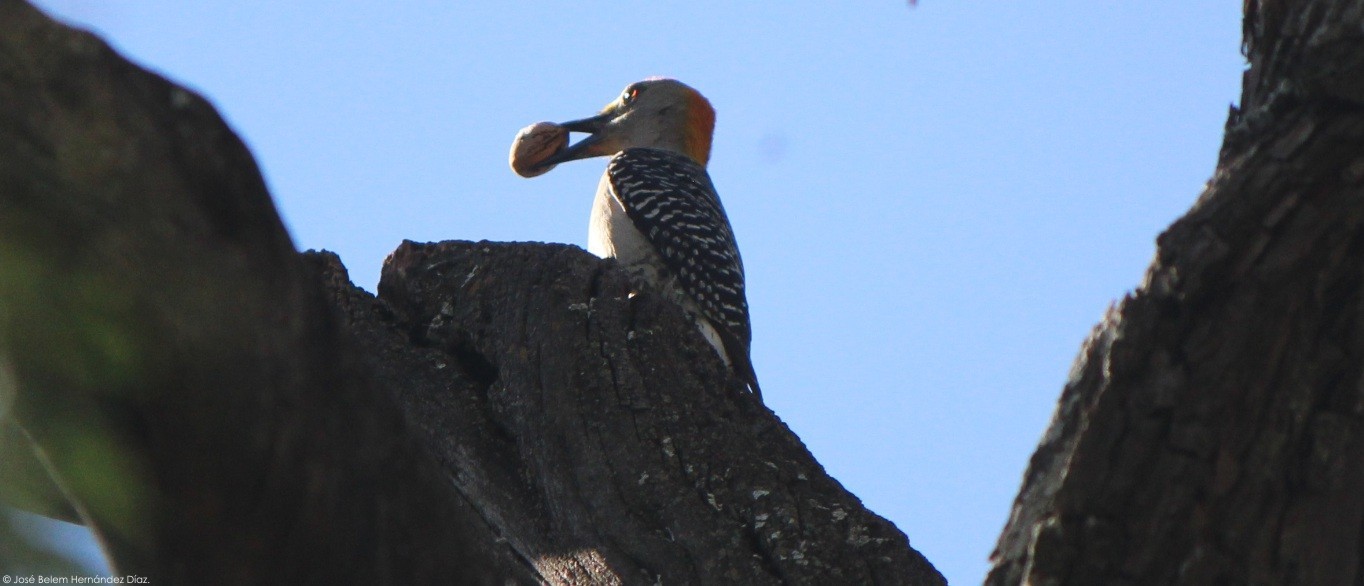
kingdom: Animalia
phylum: Chordata
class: Aves
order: Piciformes
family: Picidae
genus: Melanerpes
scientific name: Melanerpes aurifrons
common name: Golden-fronted woodpecker
